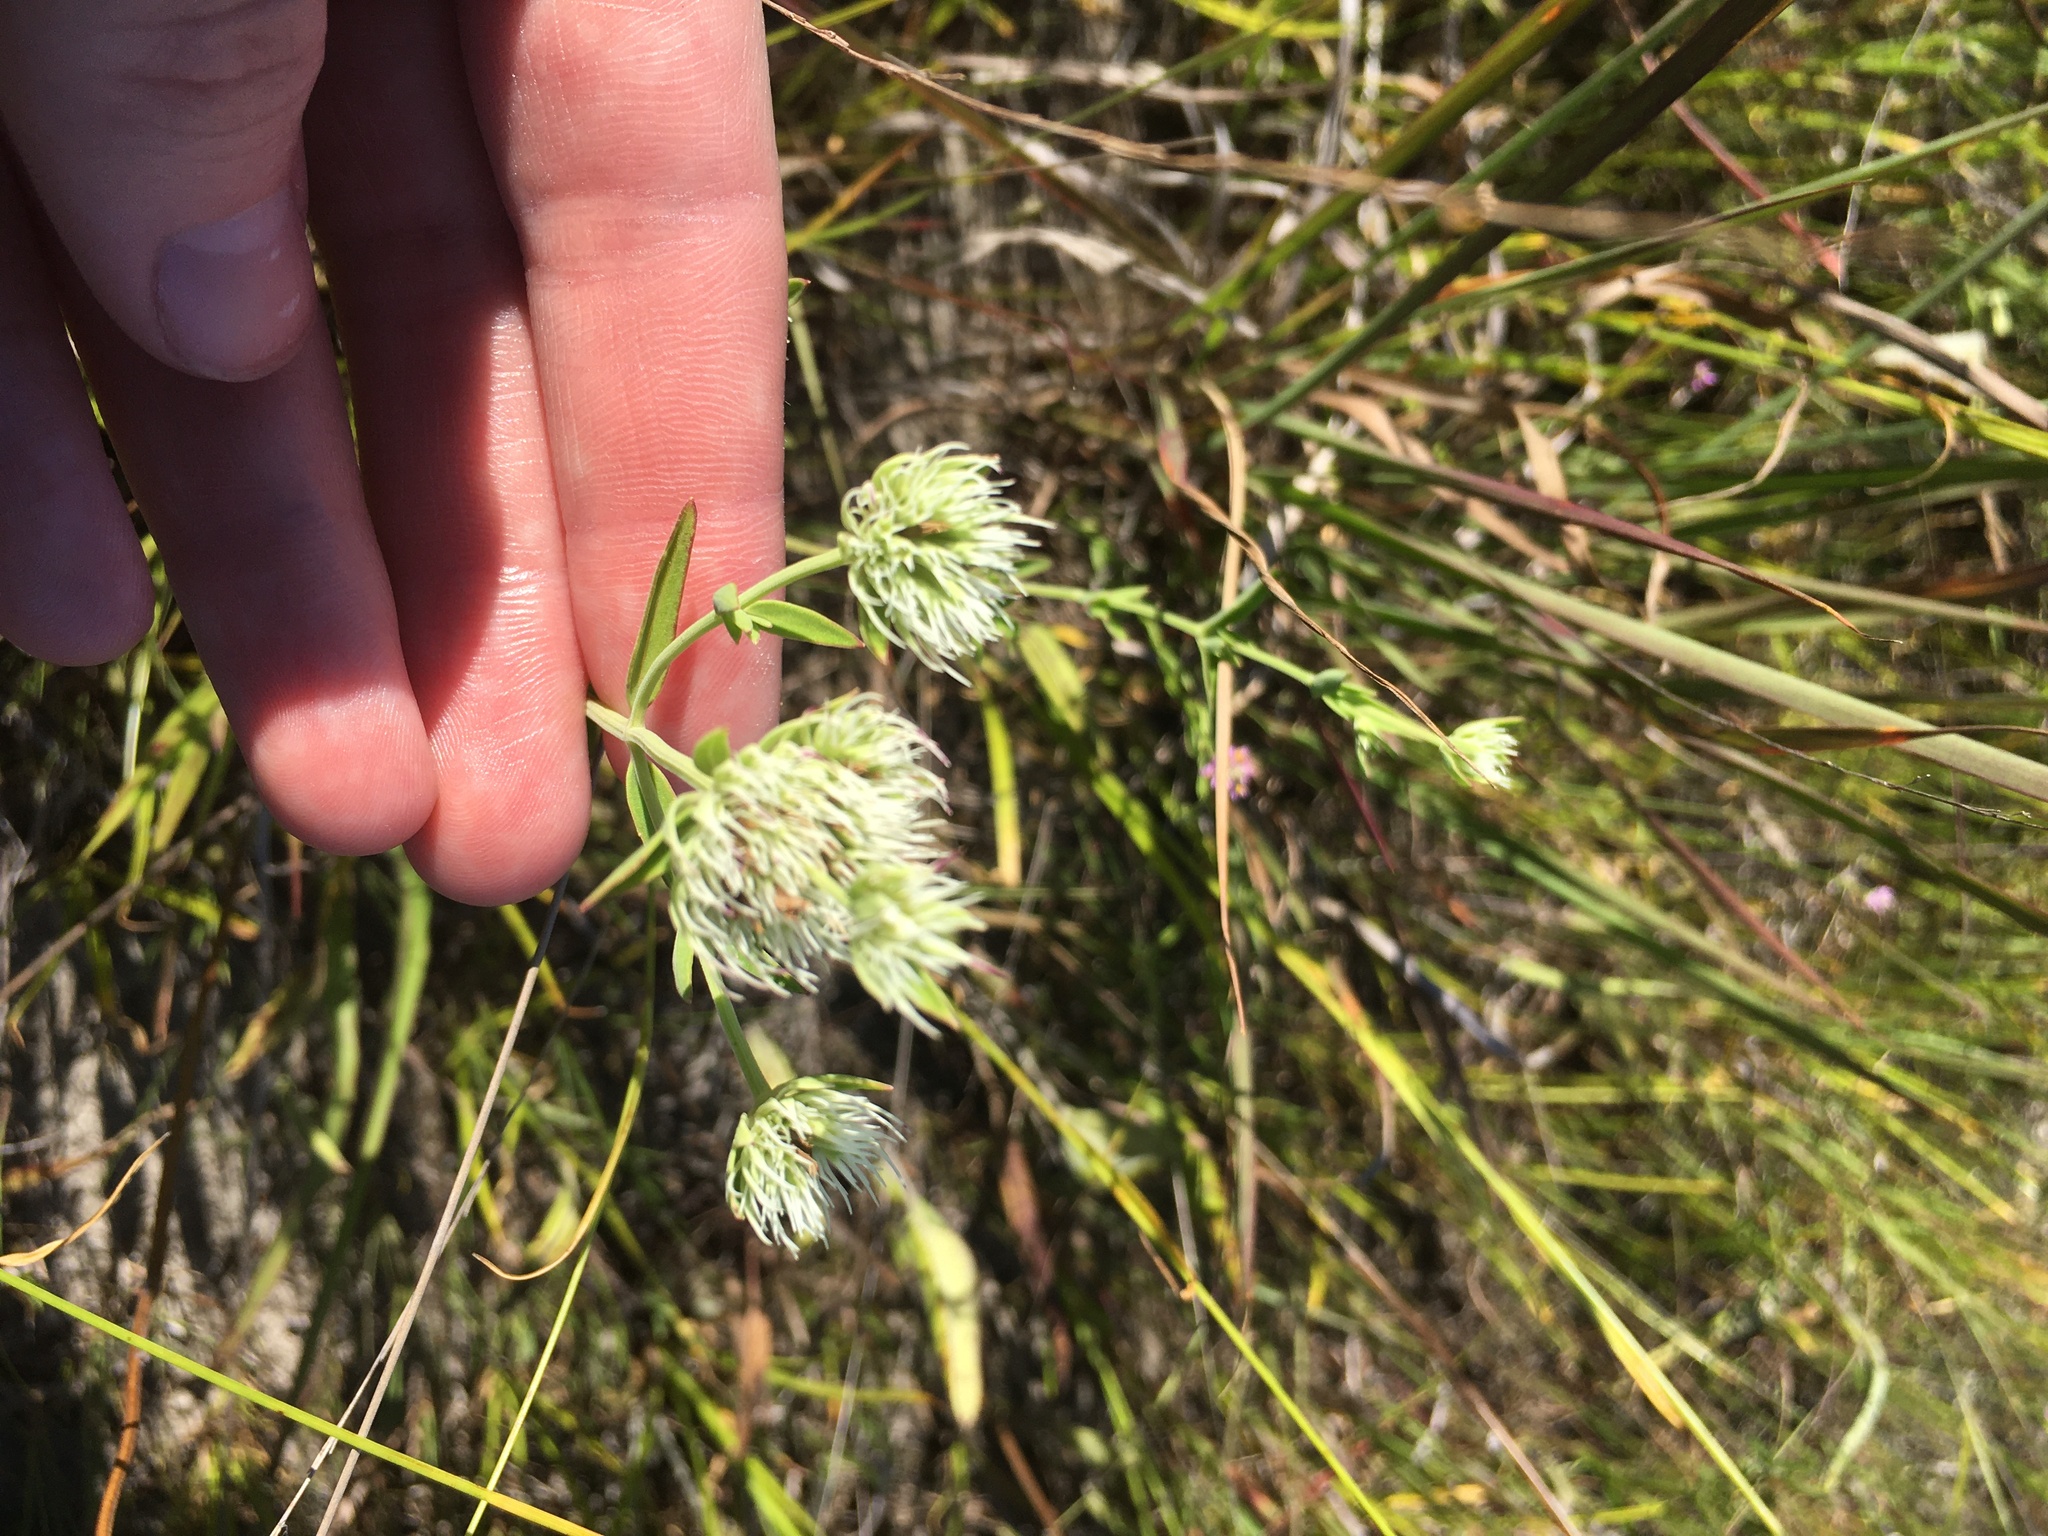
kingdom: Plantae
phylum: Tracheophyta
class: Magnoliopsida
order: Lamiales
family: Lamiaceae
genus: Pycnanthemum
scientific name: Pycnanthemum flexuosum
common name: Appalachian mountain-mint
